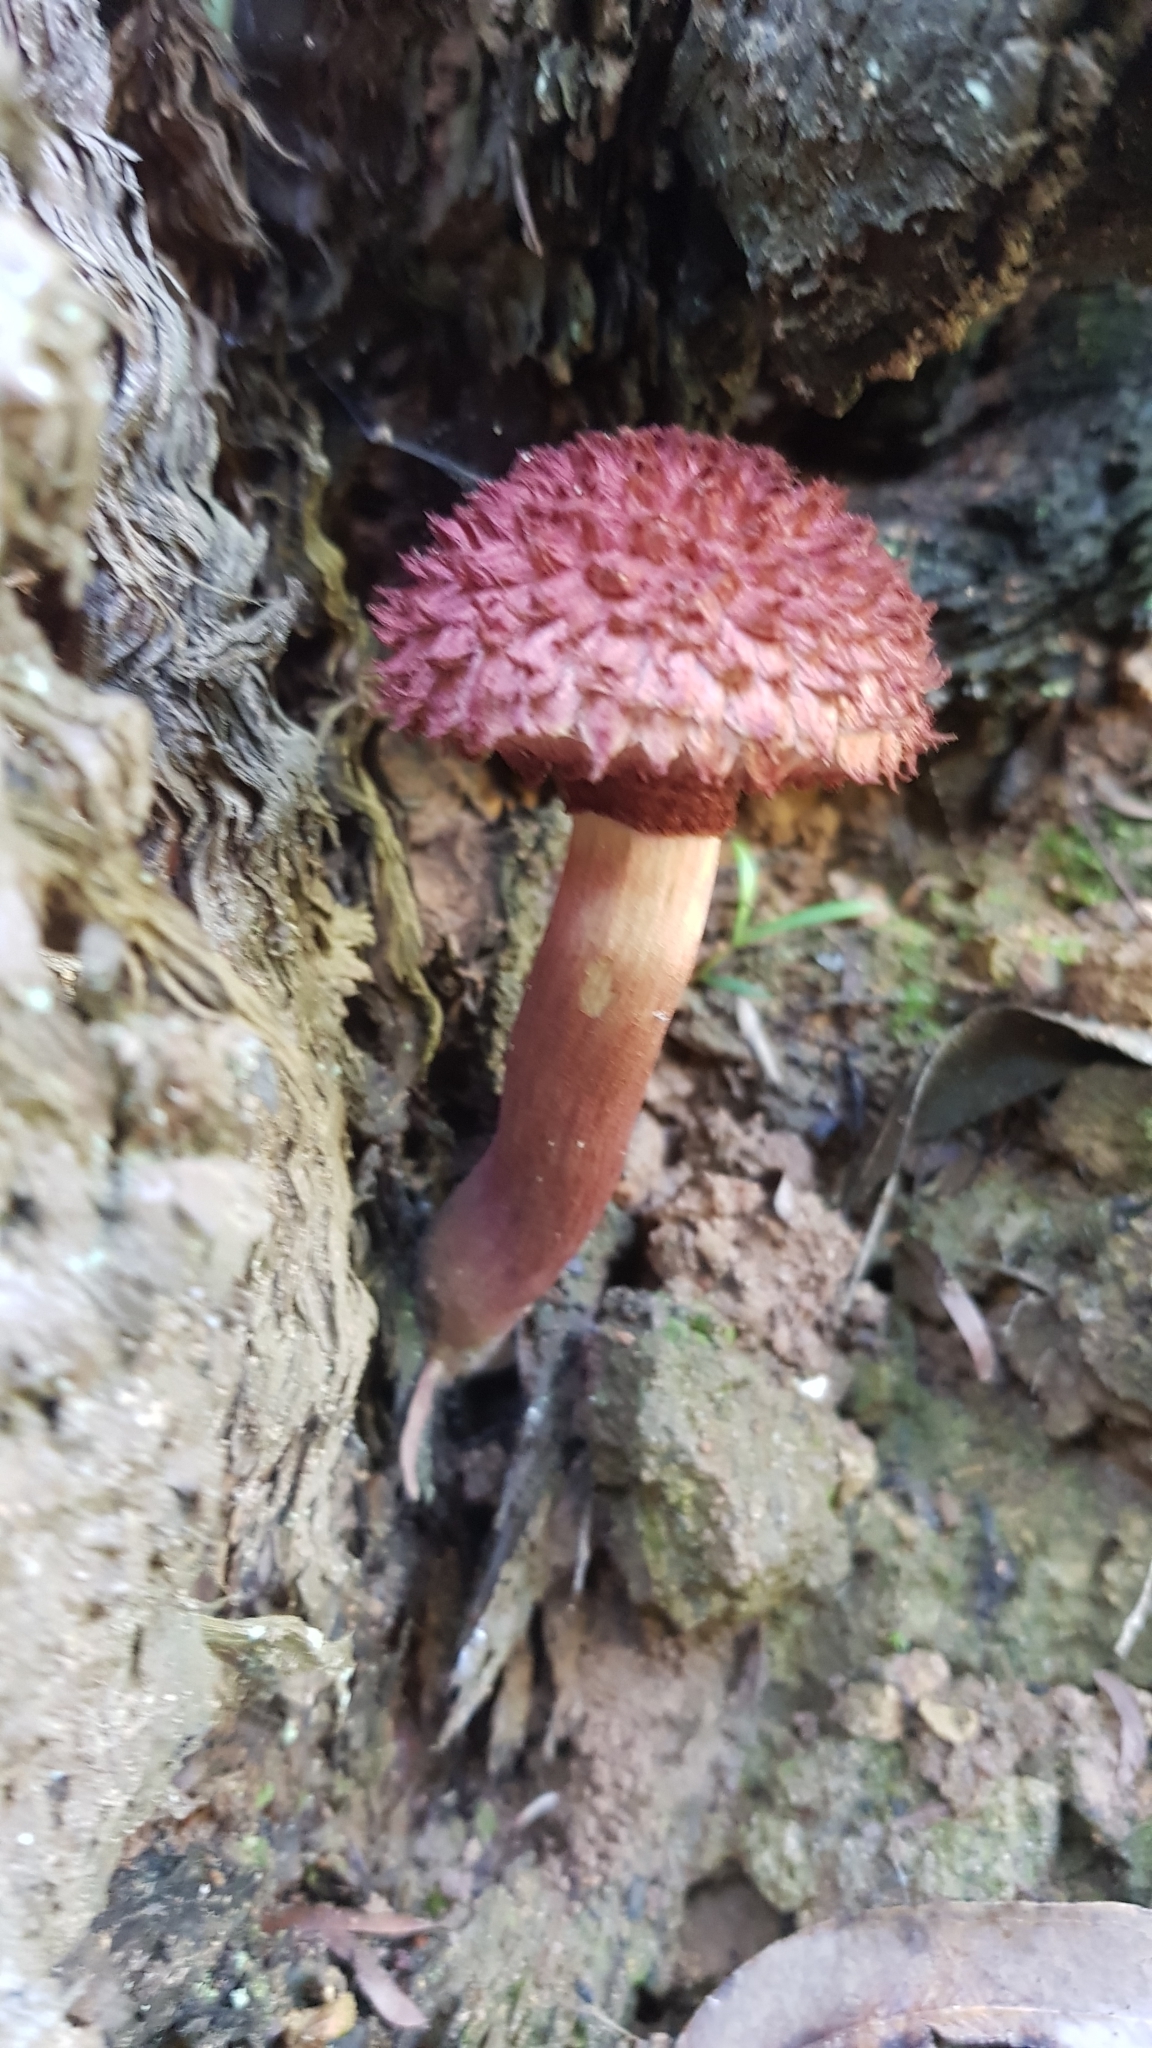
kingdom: Fungi
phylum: Basidiomycota
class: Agaricomycetes
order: Boletales
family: Boletaceae
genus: Boletellus
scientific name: Boletellus emodensis
